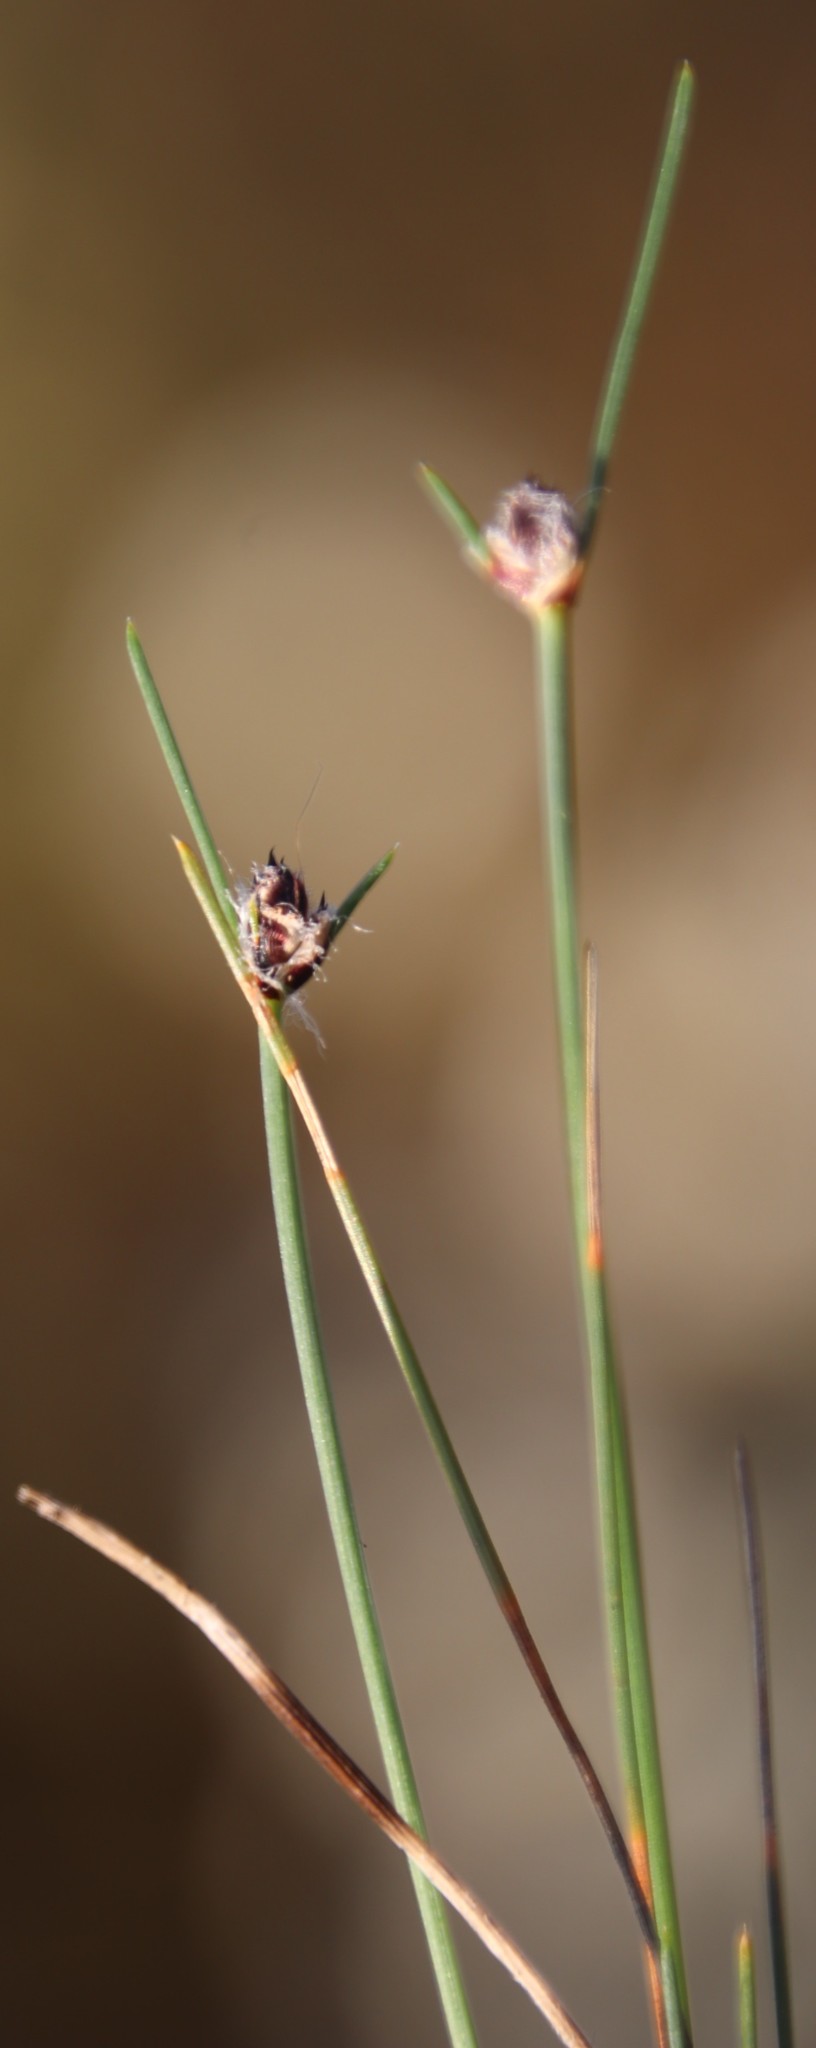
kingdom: Plantae
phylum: Tracheophyta
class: Liliopsida
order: Poales
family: Cyperaceae
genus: Ficinia
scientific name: Ficinia paradoxa
